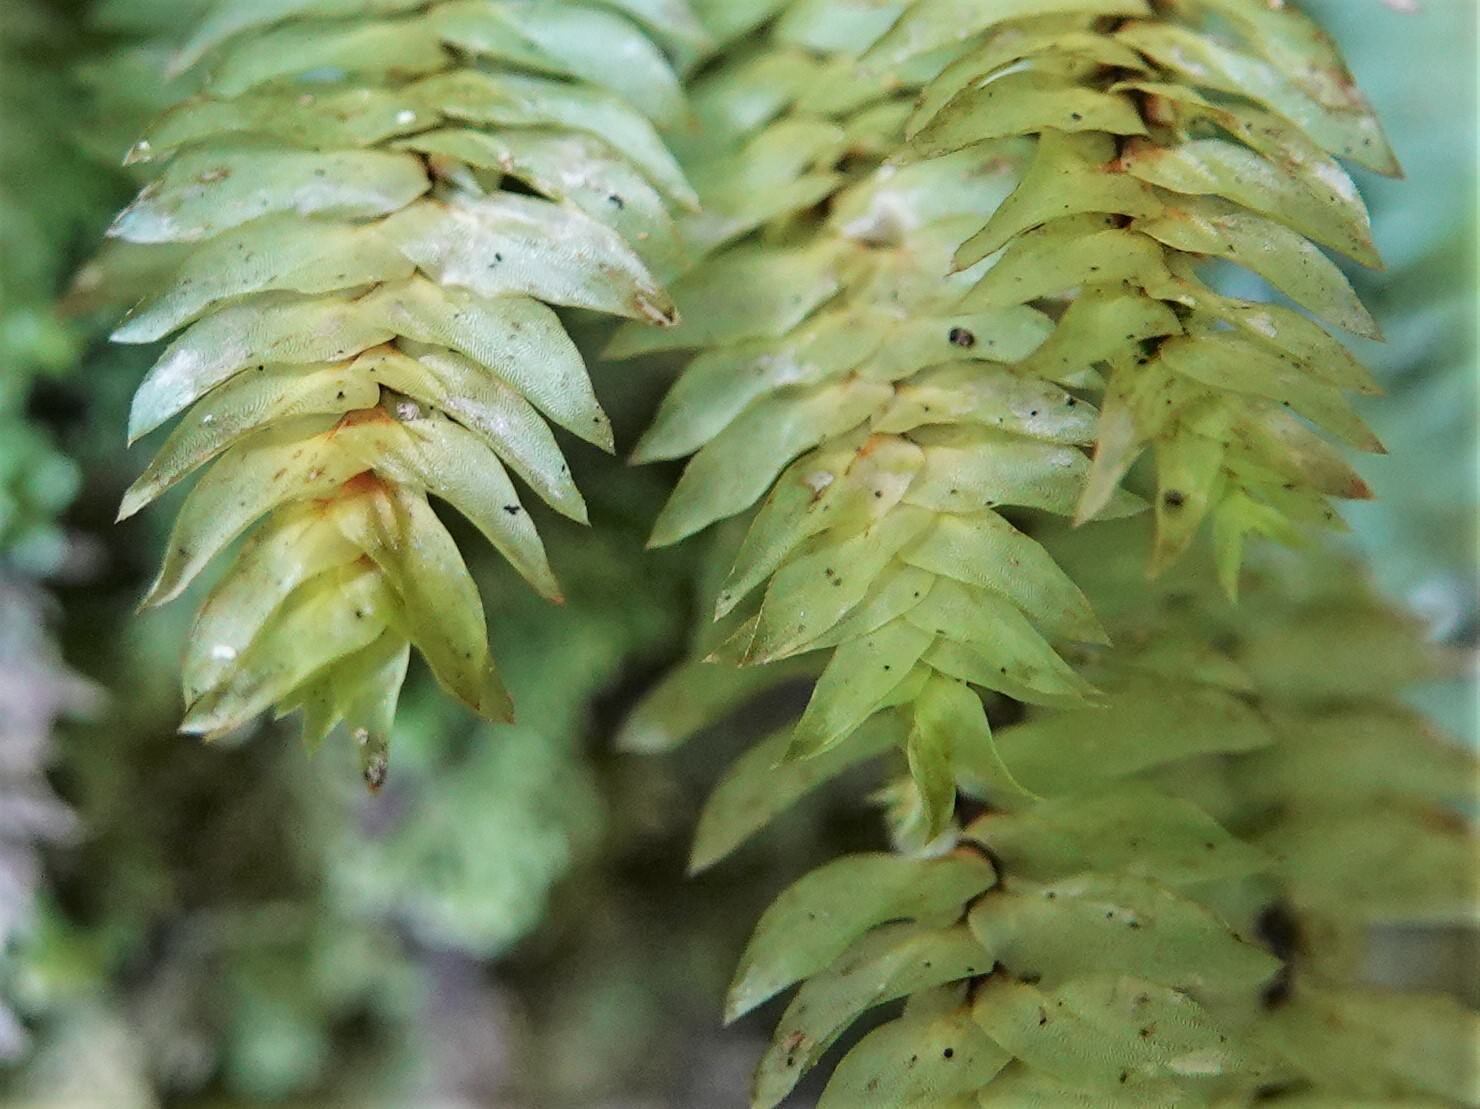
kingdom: Plantae
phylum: Bryophyta
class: Bryopsida
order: Hypopterygiales
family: Hypopterygiaceae
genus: Cyathophorum
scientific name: Cyathophorum bulbosum
